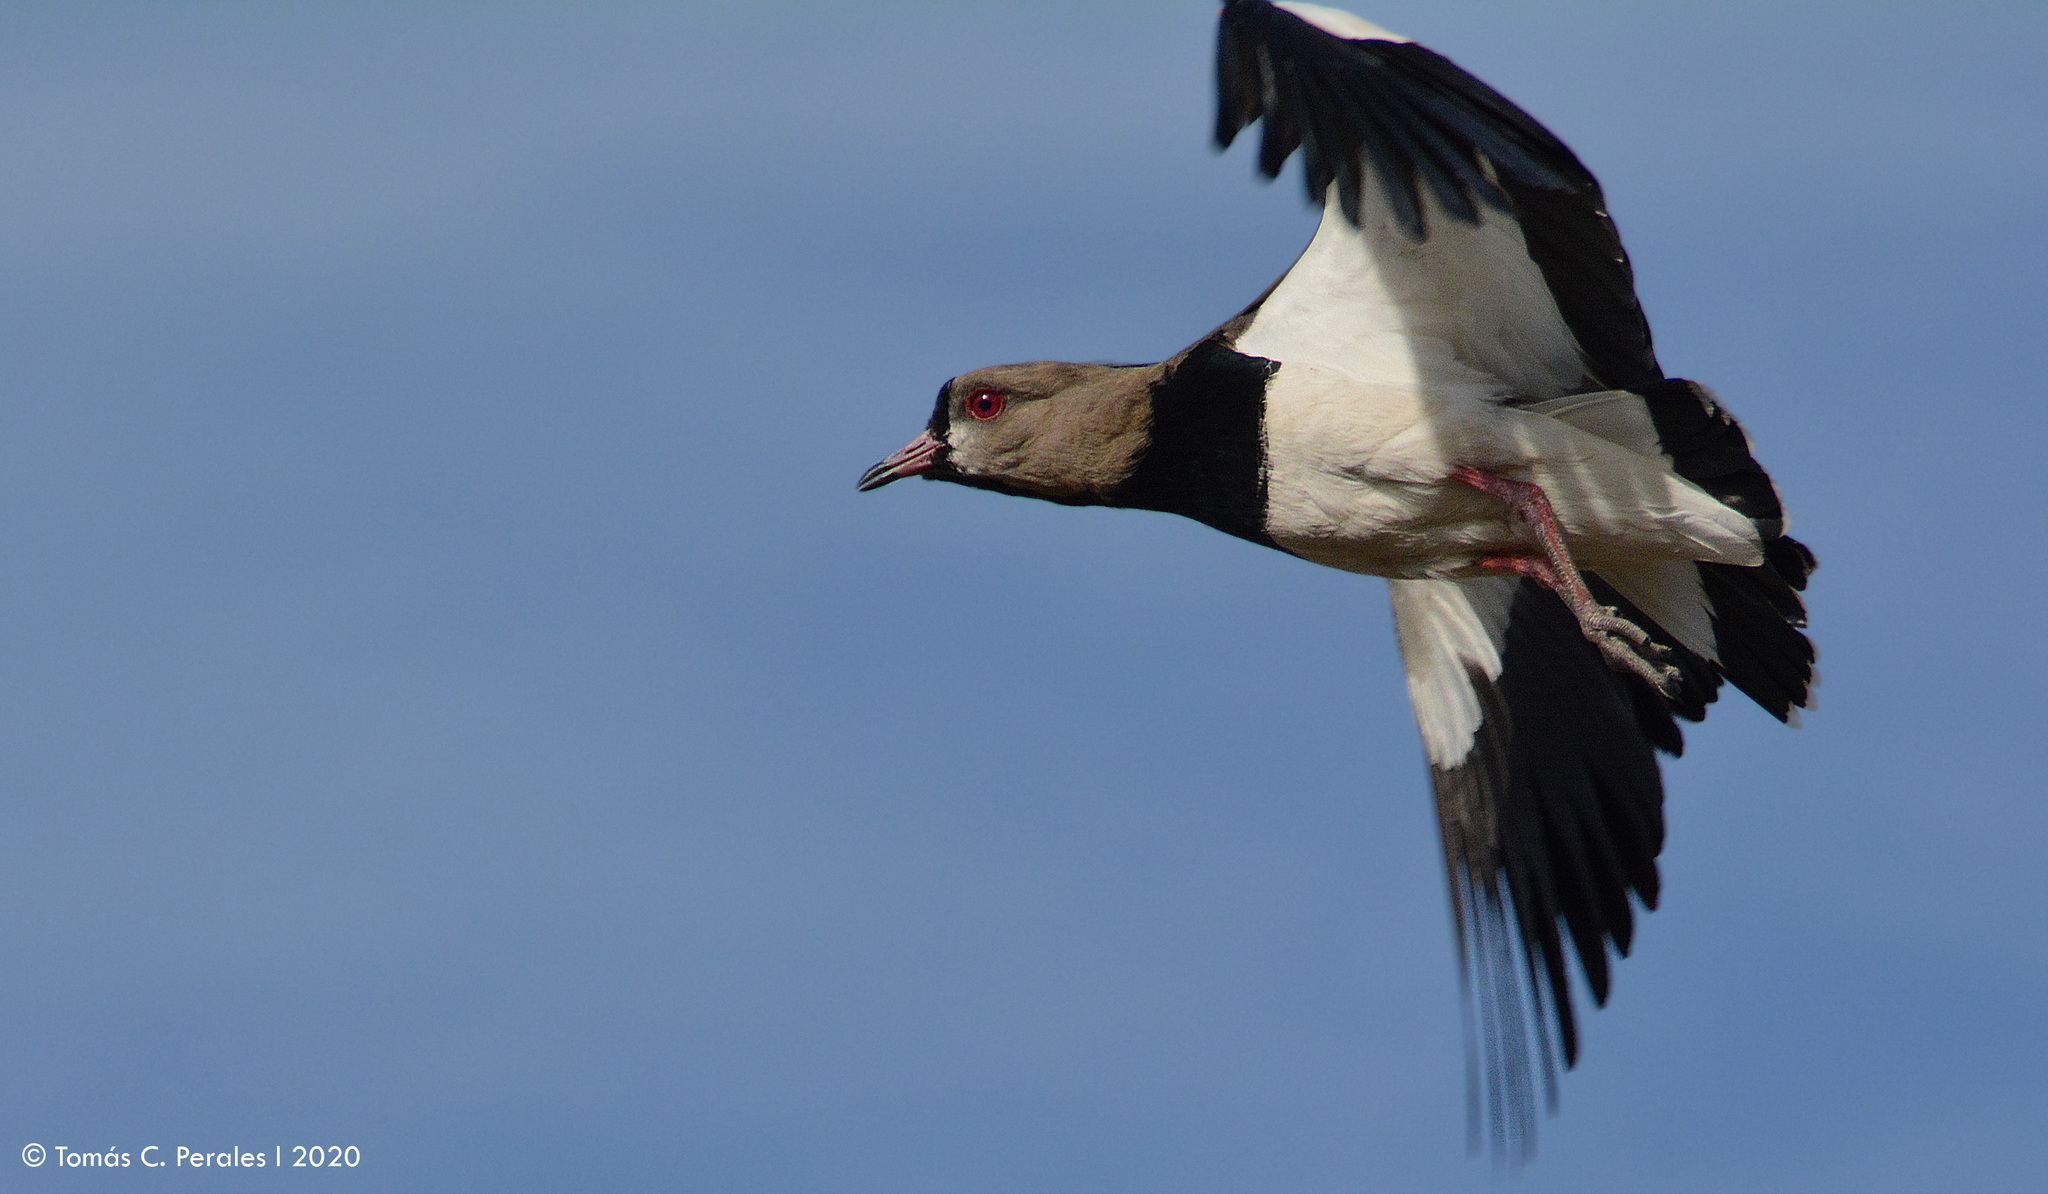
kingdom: Animalia
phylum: Chordata
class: Aves
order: Charadriiformes
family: Charadriidae
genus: Vanellus
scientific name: Vanellus chilensis
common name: Southern lapwing
